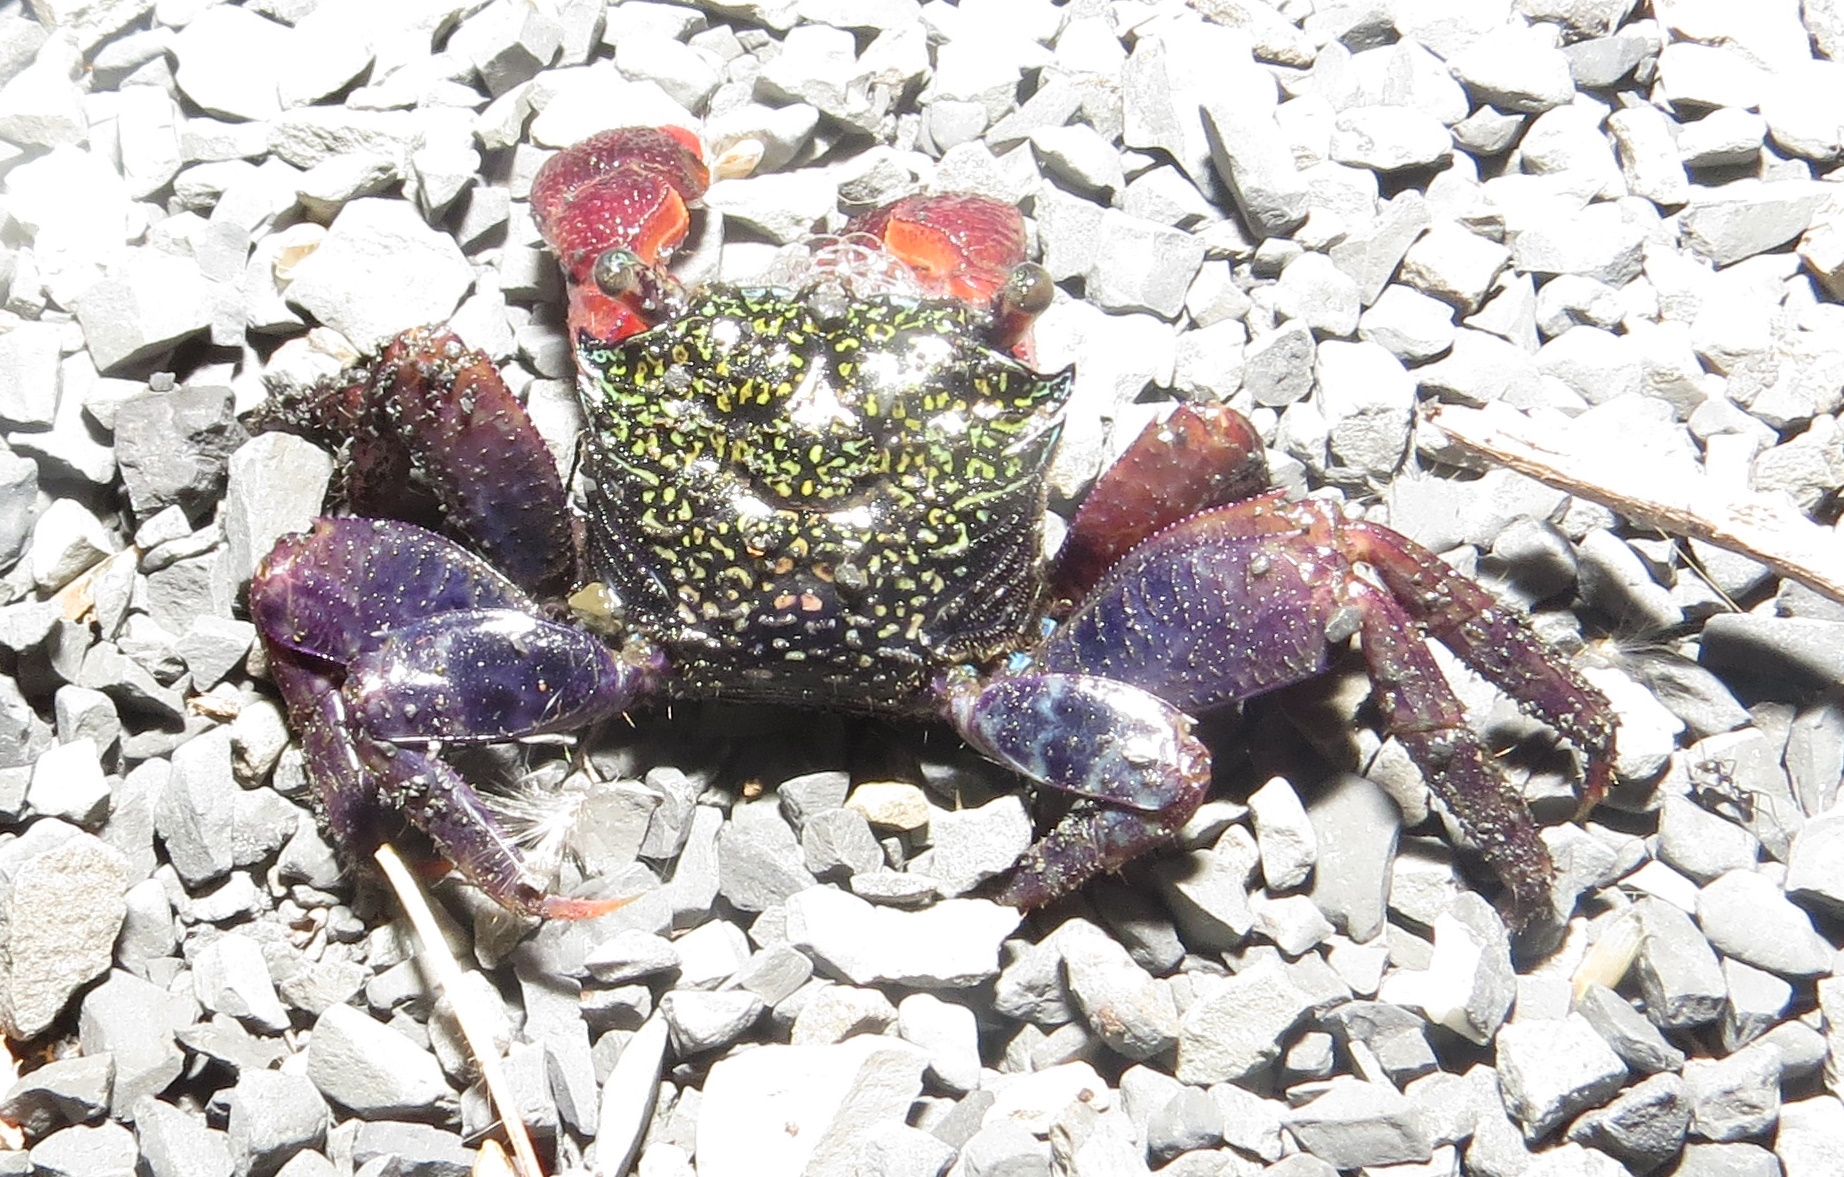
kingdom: Animalia
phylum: Arthropoda
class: Malacostraca
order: Decapoda
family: Sesarmidae
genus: Parasesarma
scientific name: Parasesarma eumolpe
